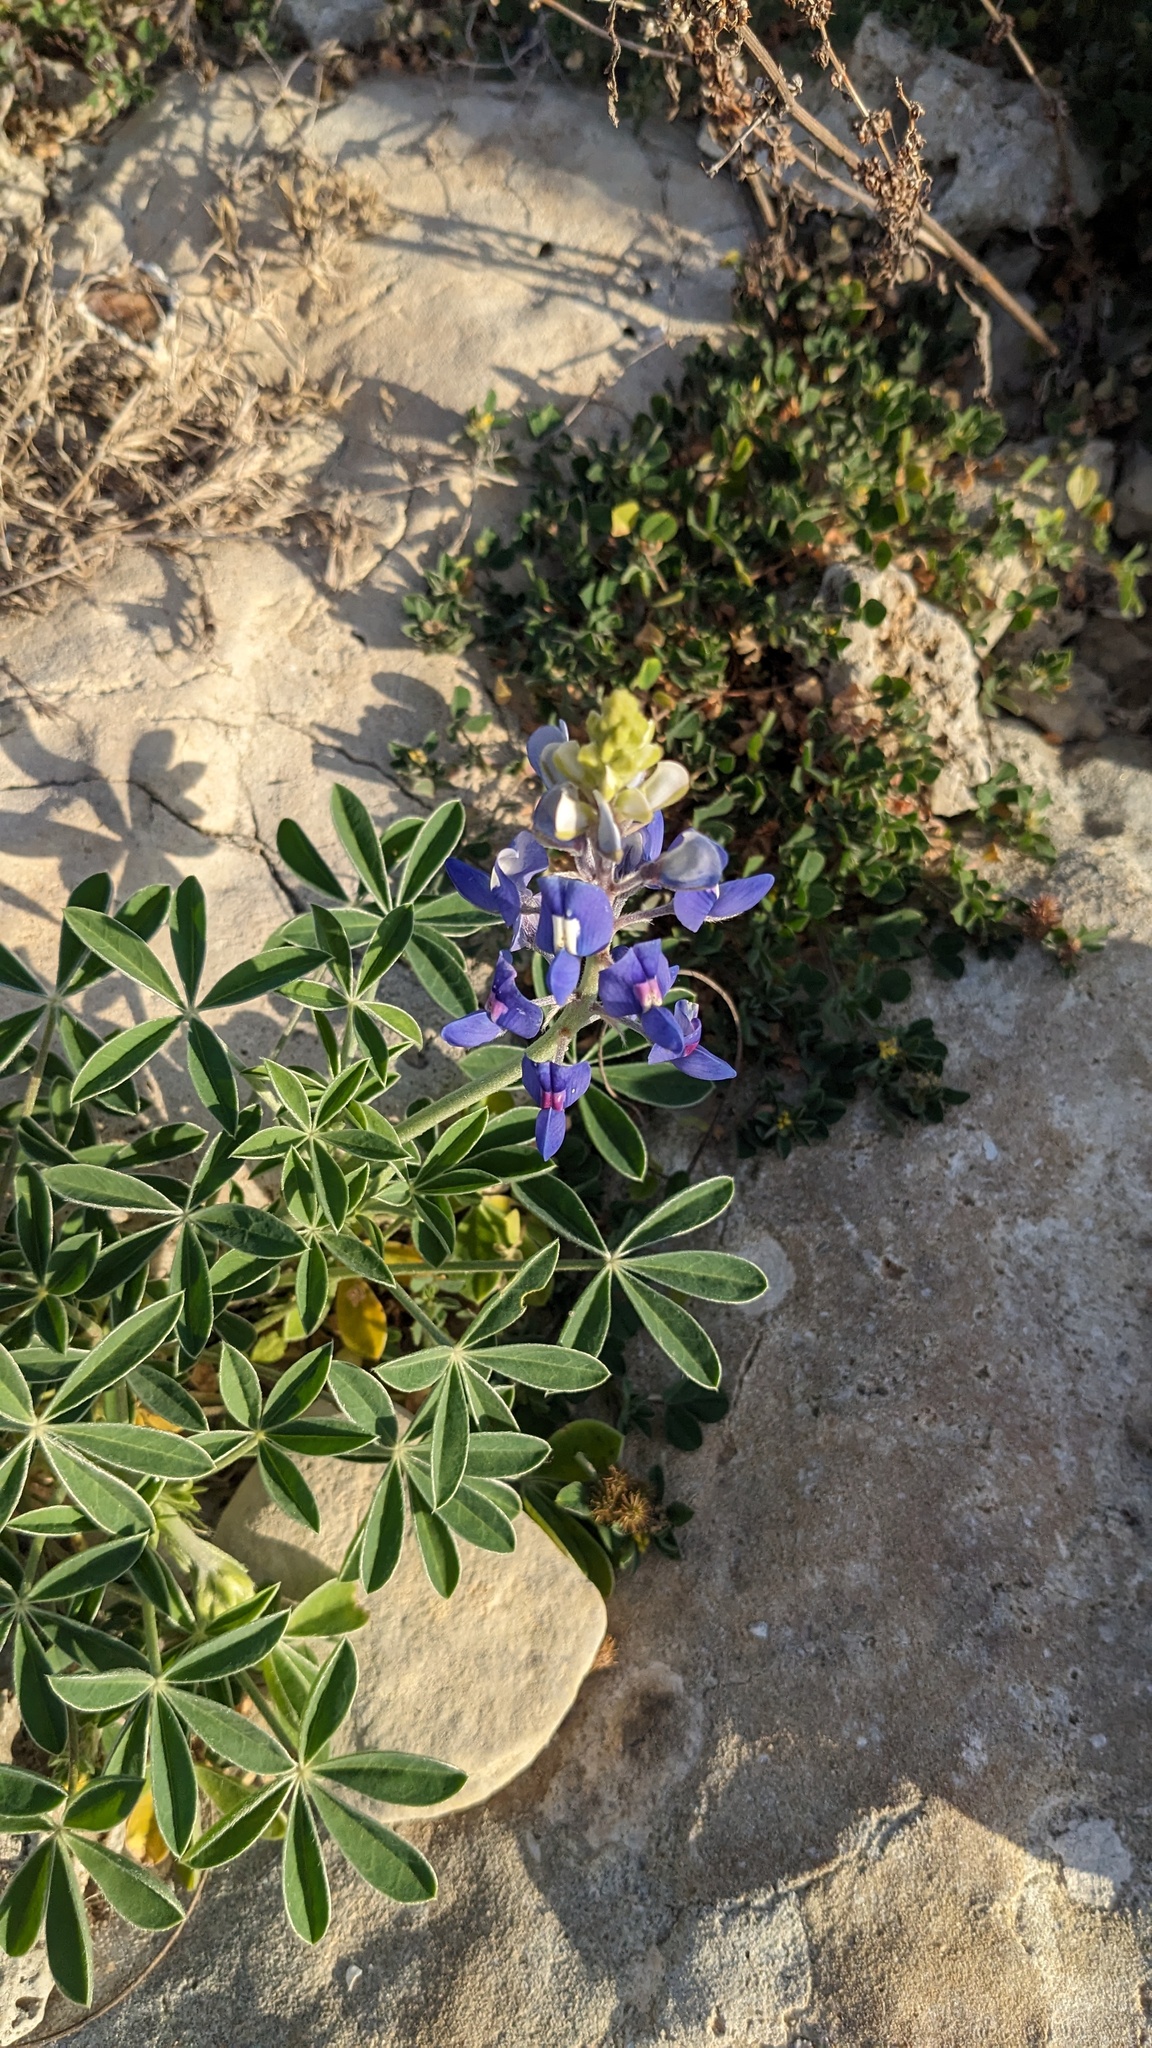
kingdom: Plantae
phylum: Tracheophyta
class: Magnoliopsida
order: Fabales
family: Fabaceae
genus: Lupinus
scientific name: Lupinus texensis
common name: Texas bluebonnet
